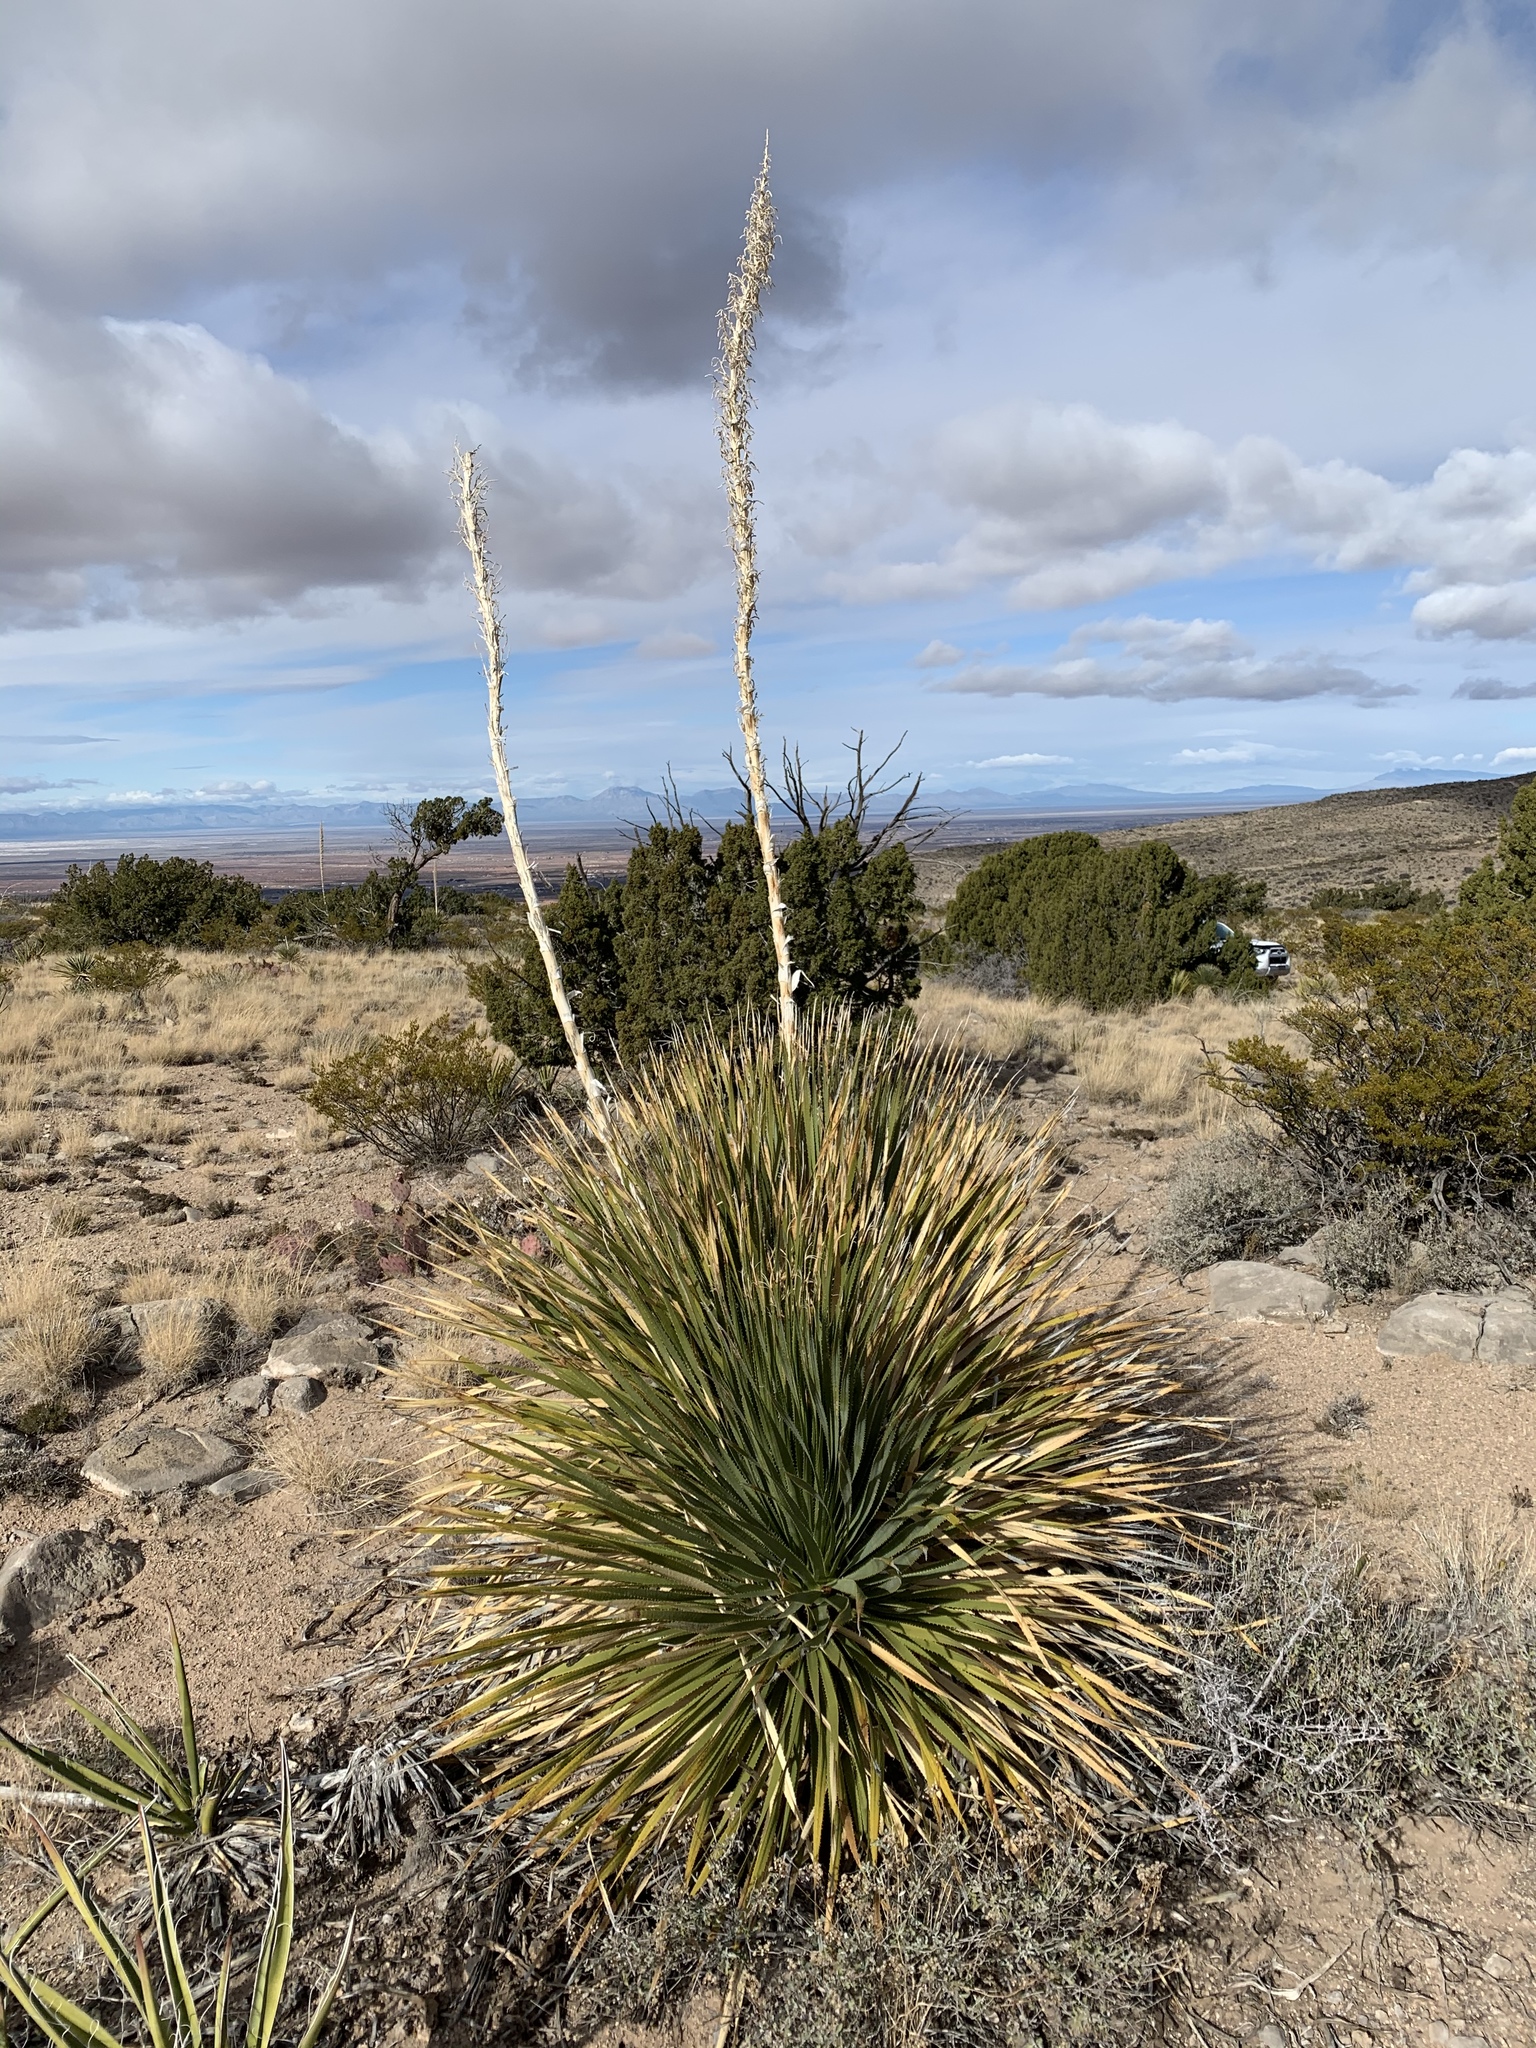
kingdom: Plantae
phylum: Tracheophyta
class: Liliopsida
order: Asparagales
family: Asparagaceae
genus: Dasylirion
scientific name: Dasylirion wheeleri
